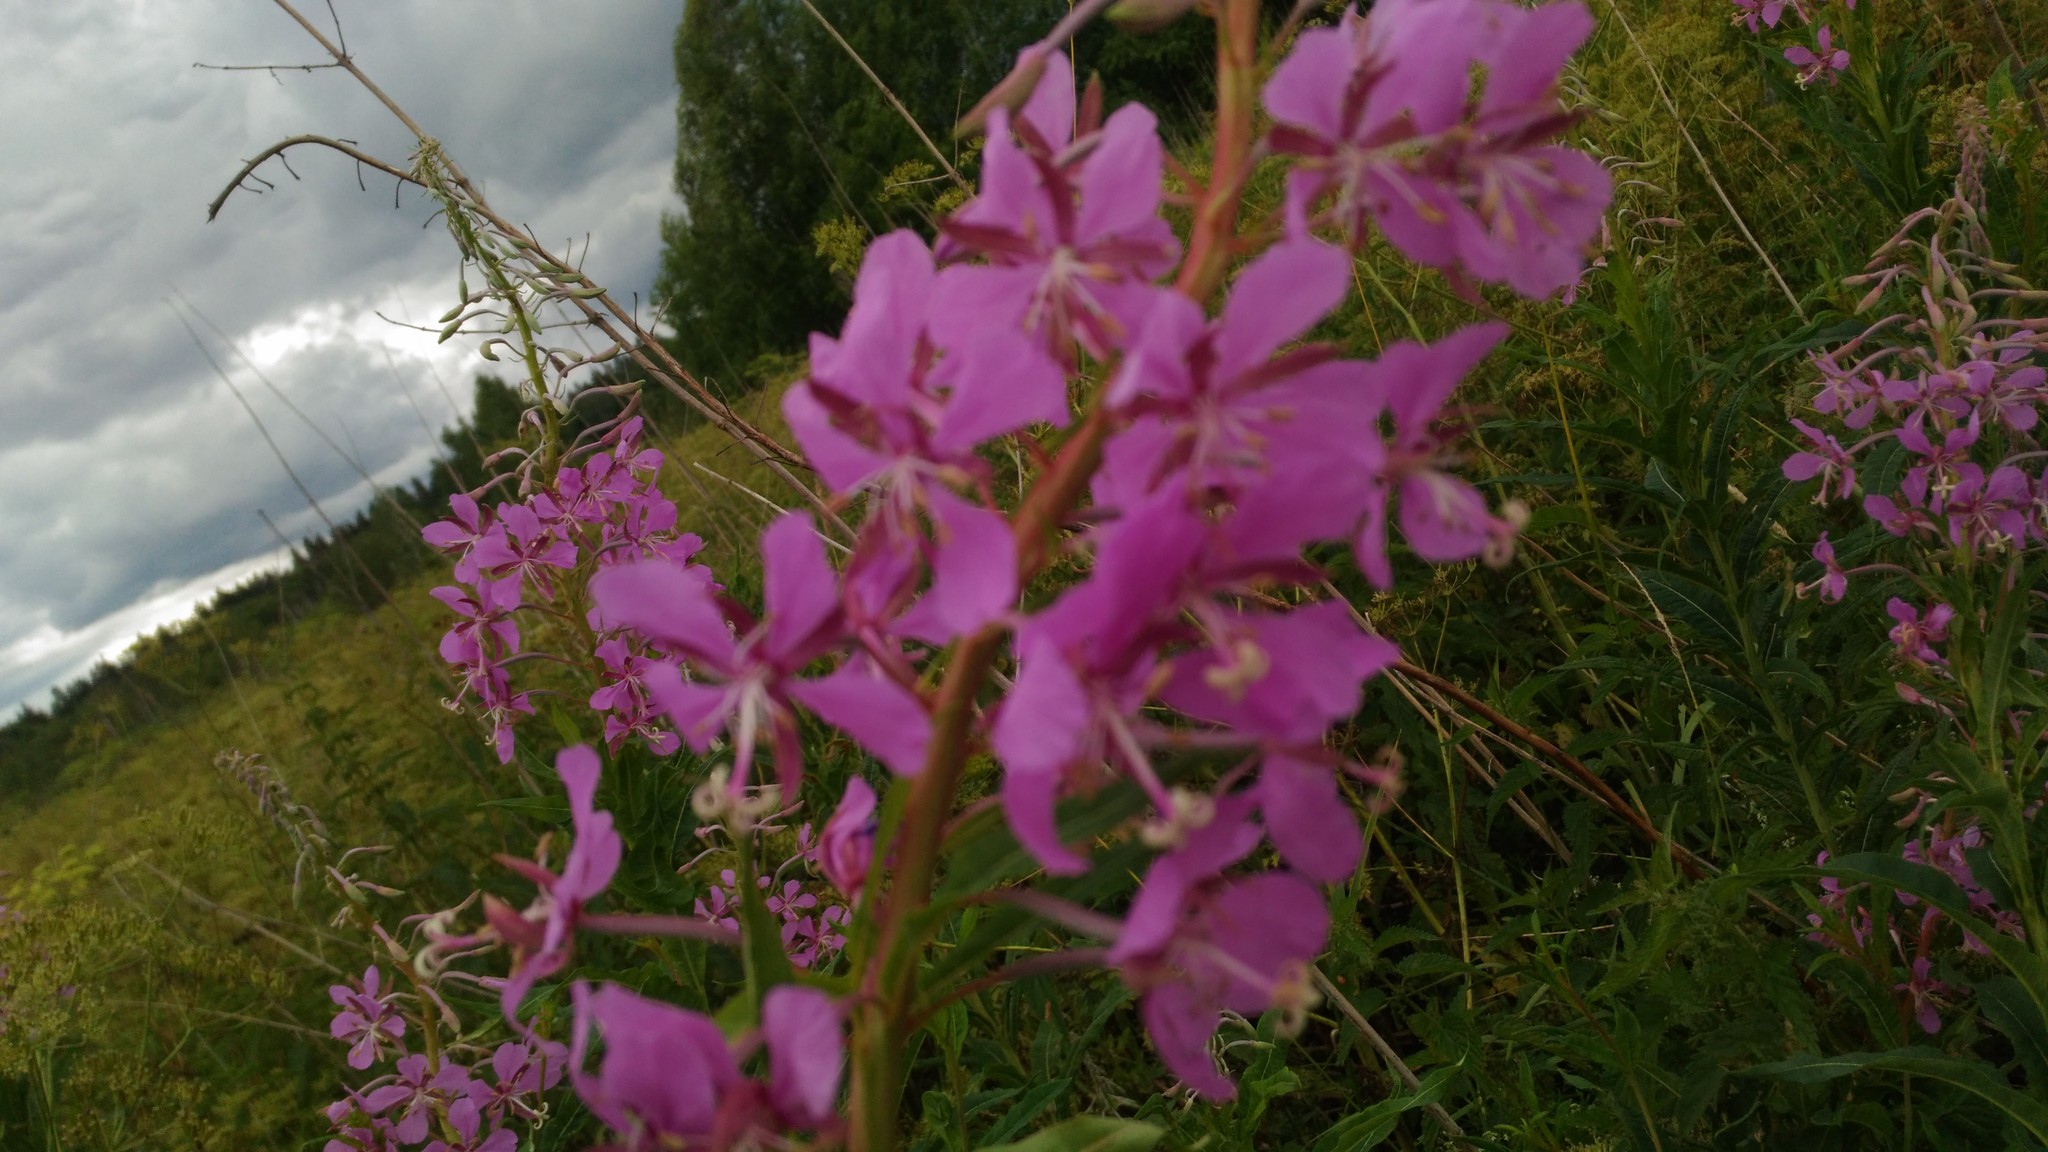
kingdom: Plantae
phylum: Tracheophyta
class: Magnoliopsida
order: Myrtales
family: Onagraceae
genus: Chamaenerion
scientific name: Chamaenerion angustifolium
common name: Fireweed
